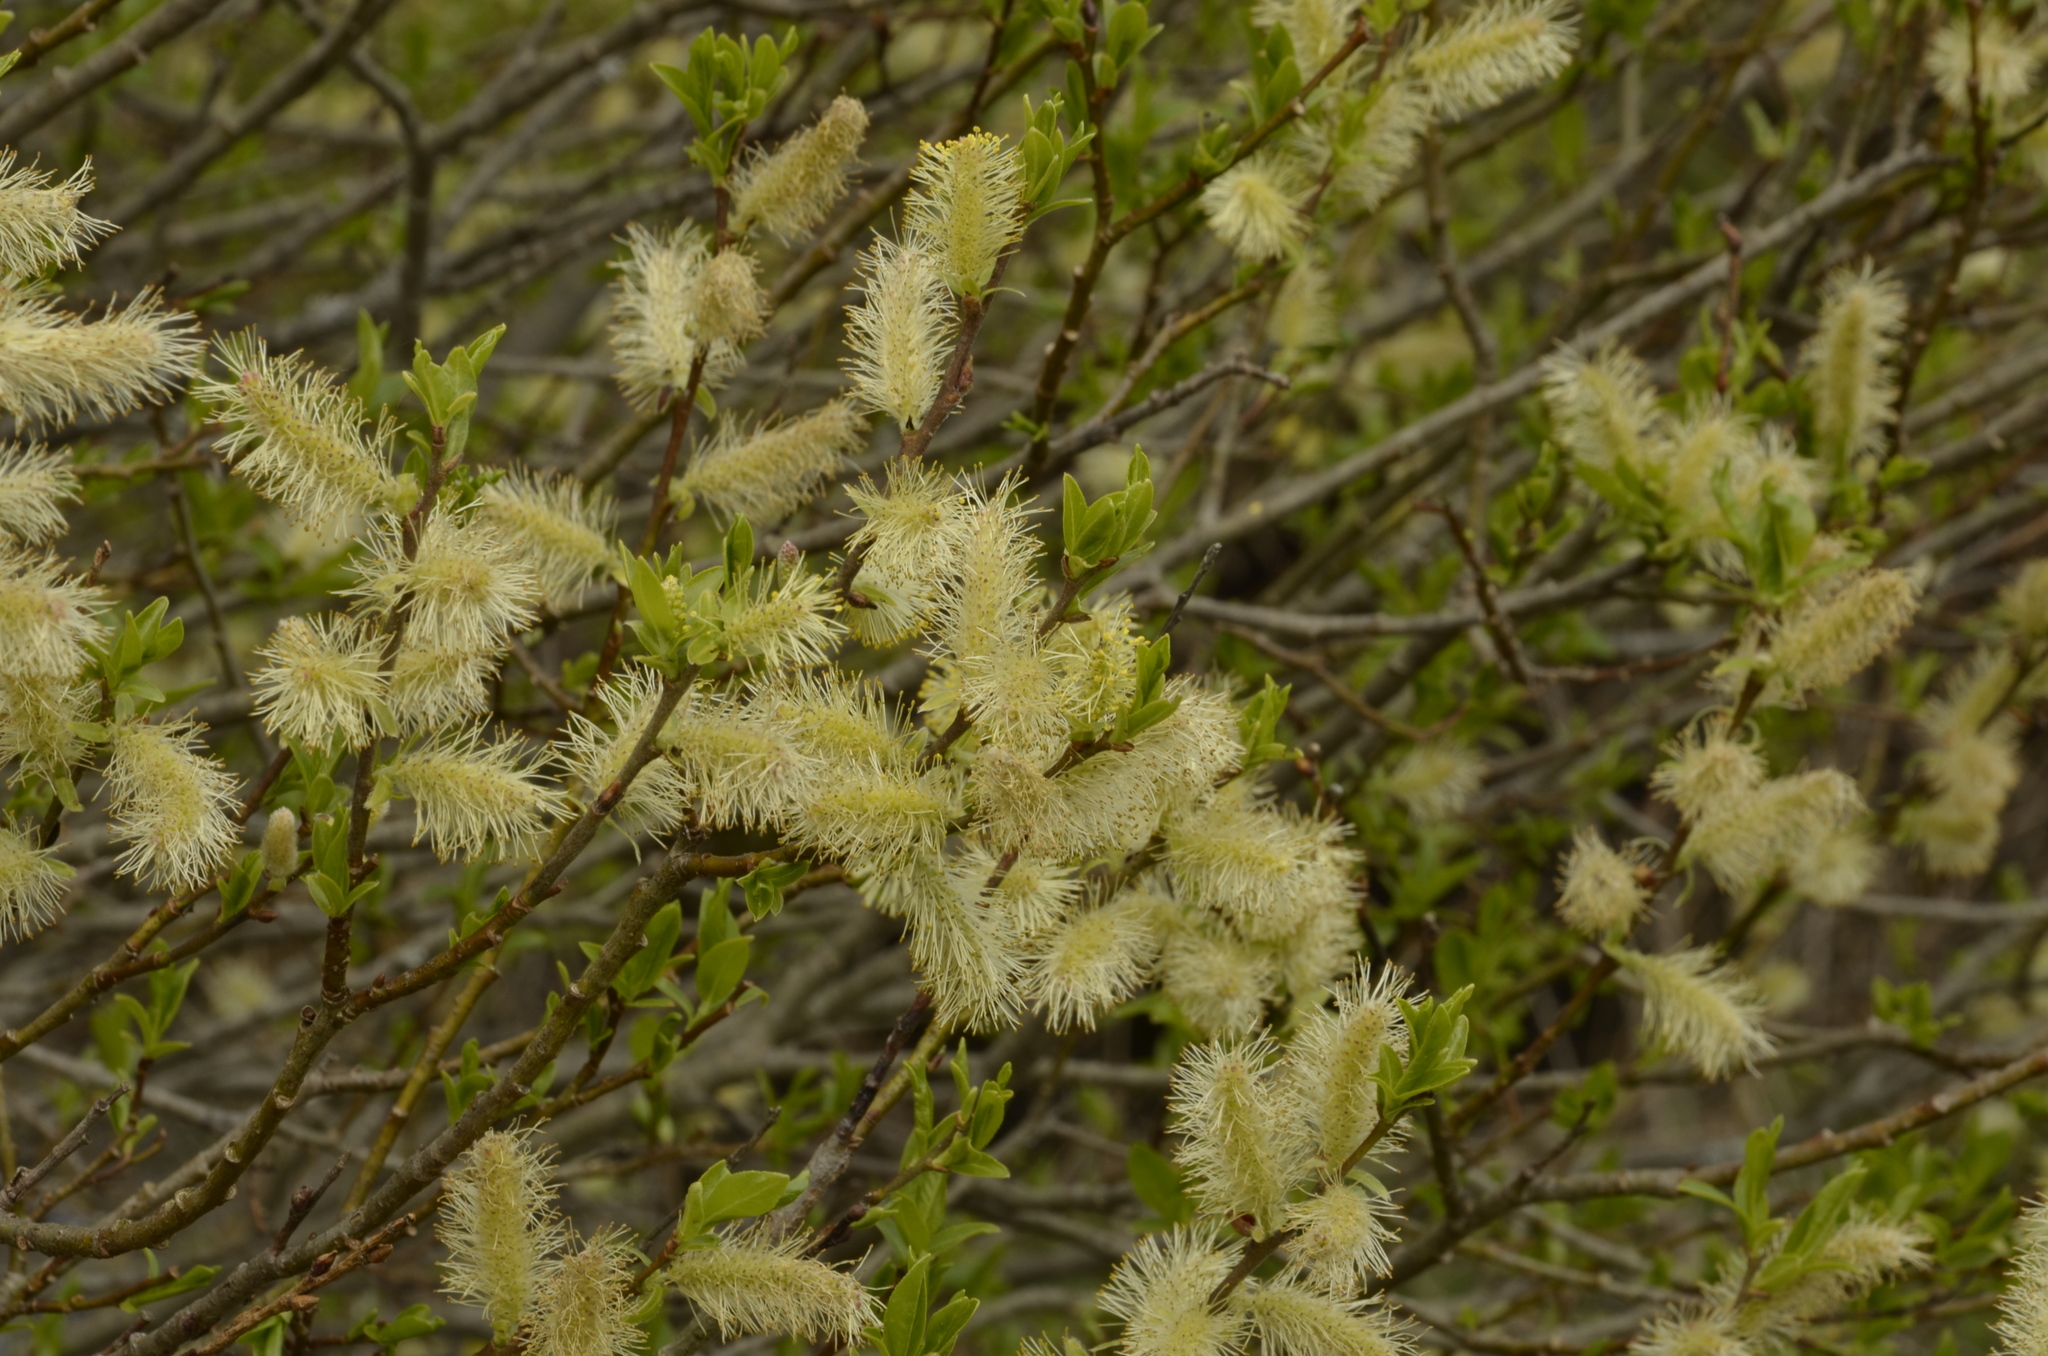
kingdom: Plantae
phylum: Tracheophyta
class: Magnoliopsida
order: Malpighiales
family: Salicaceae
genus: Salix
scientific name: Salix myrsinifolia
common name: Dark-leaved willow
